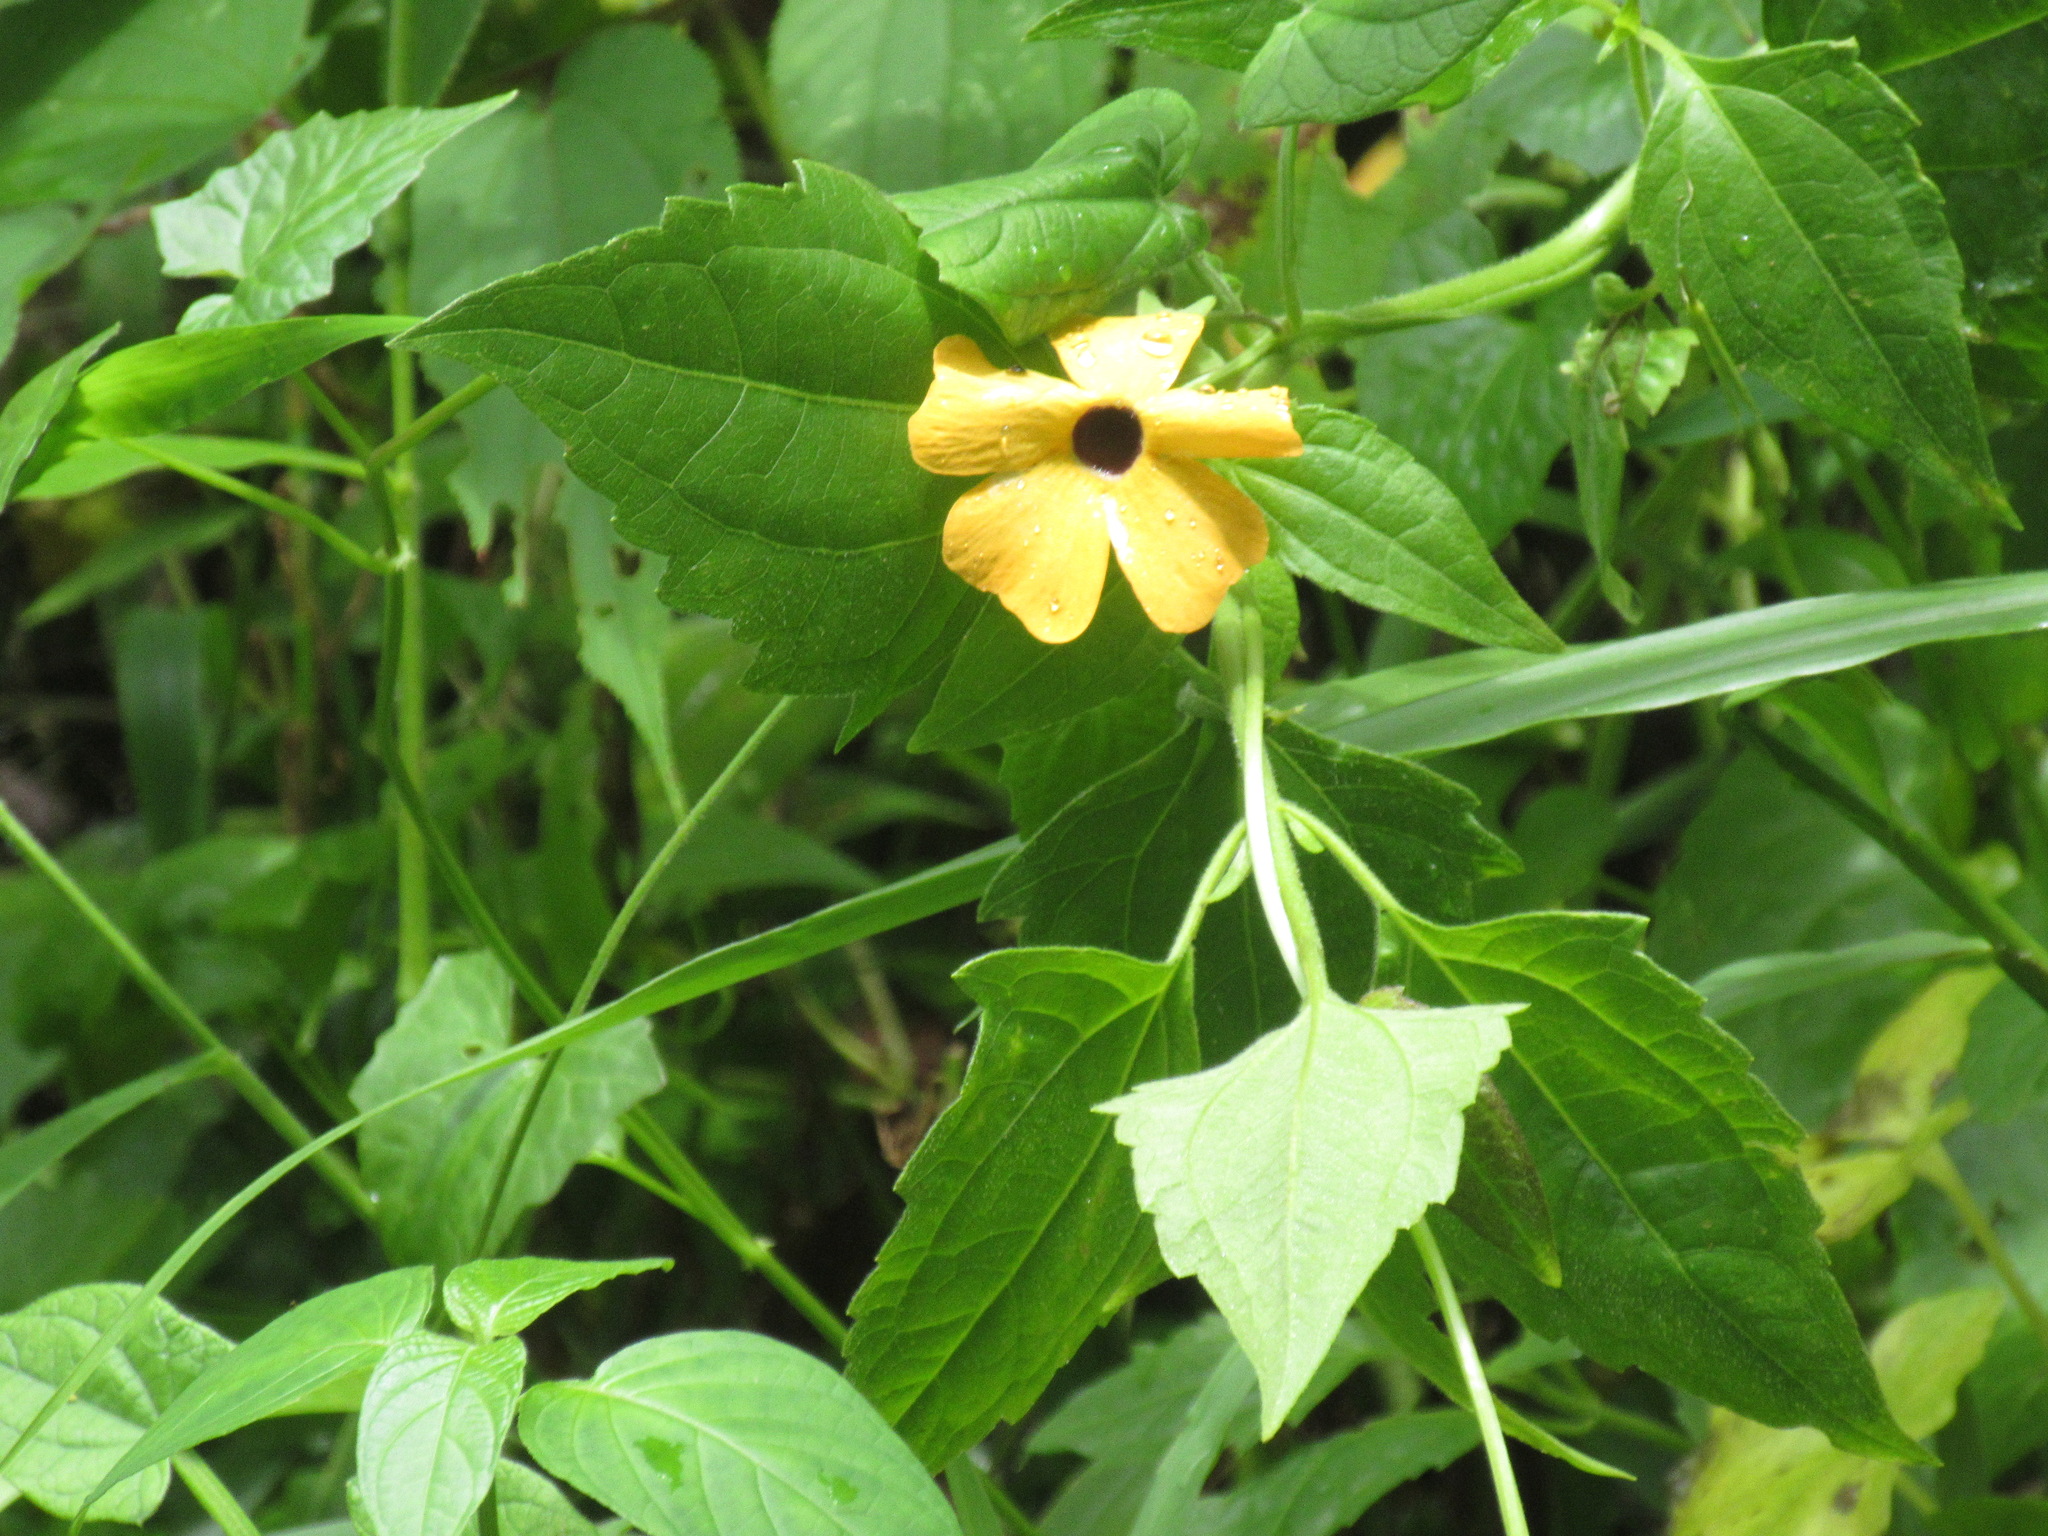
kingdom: Plantae
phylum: Tracheophyta
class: Magnoliopsida
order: Lamiales
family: Acanthaceae
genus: Thunbergia
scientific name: Thunbergia alata
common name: Blackeyed susan vine
